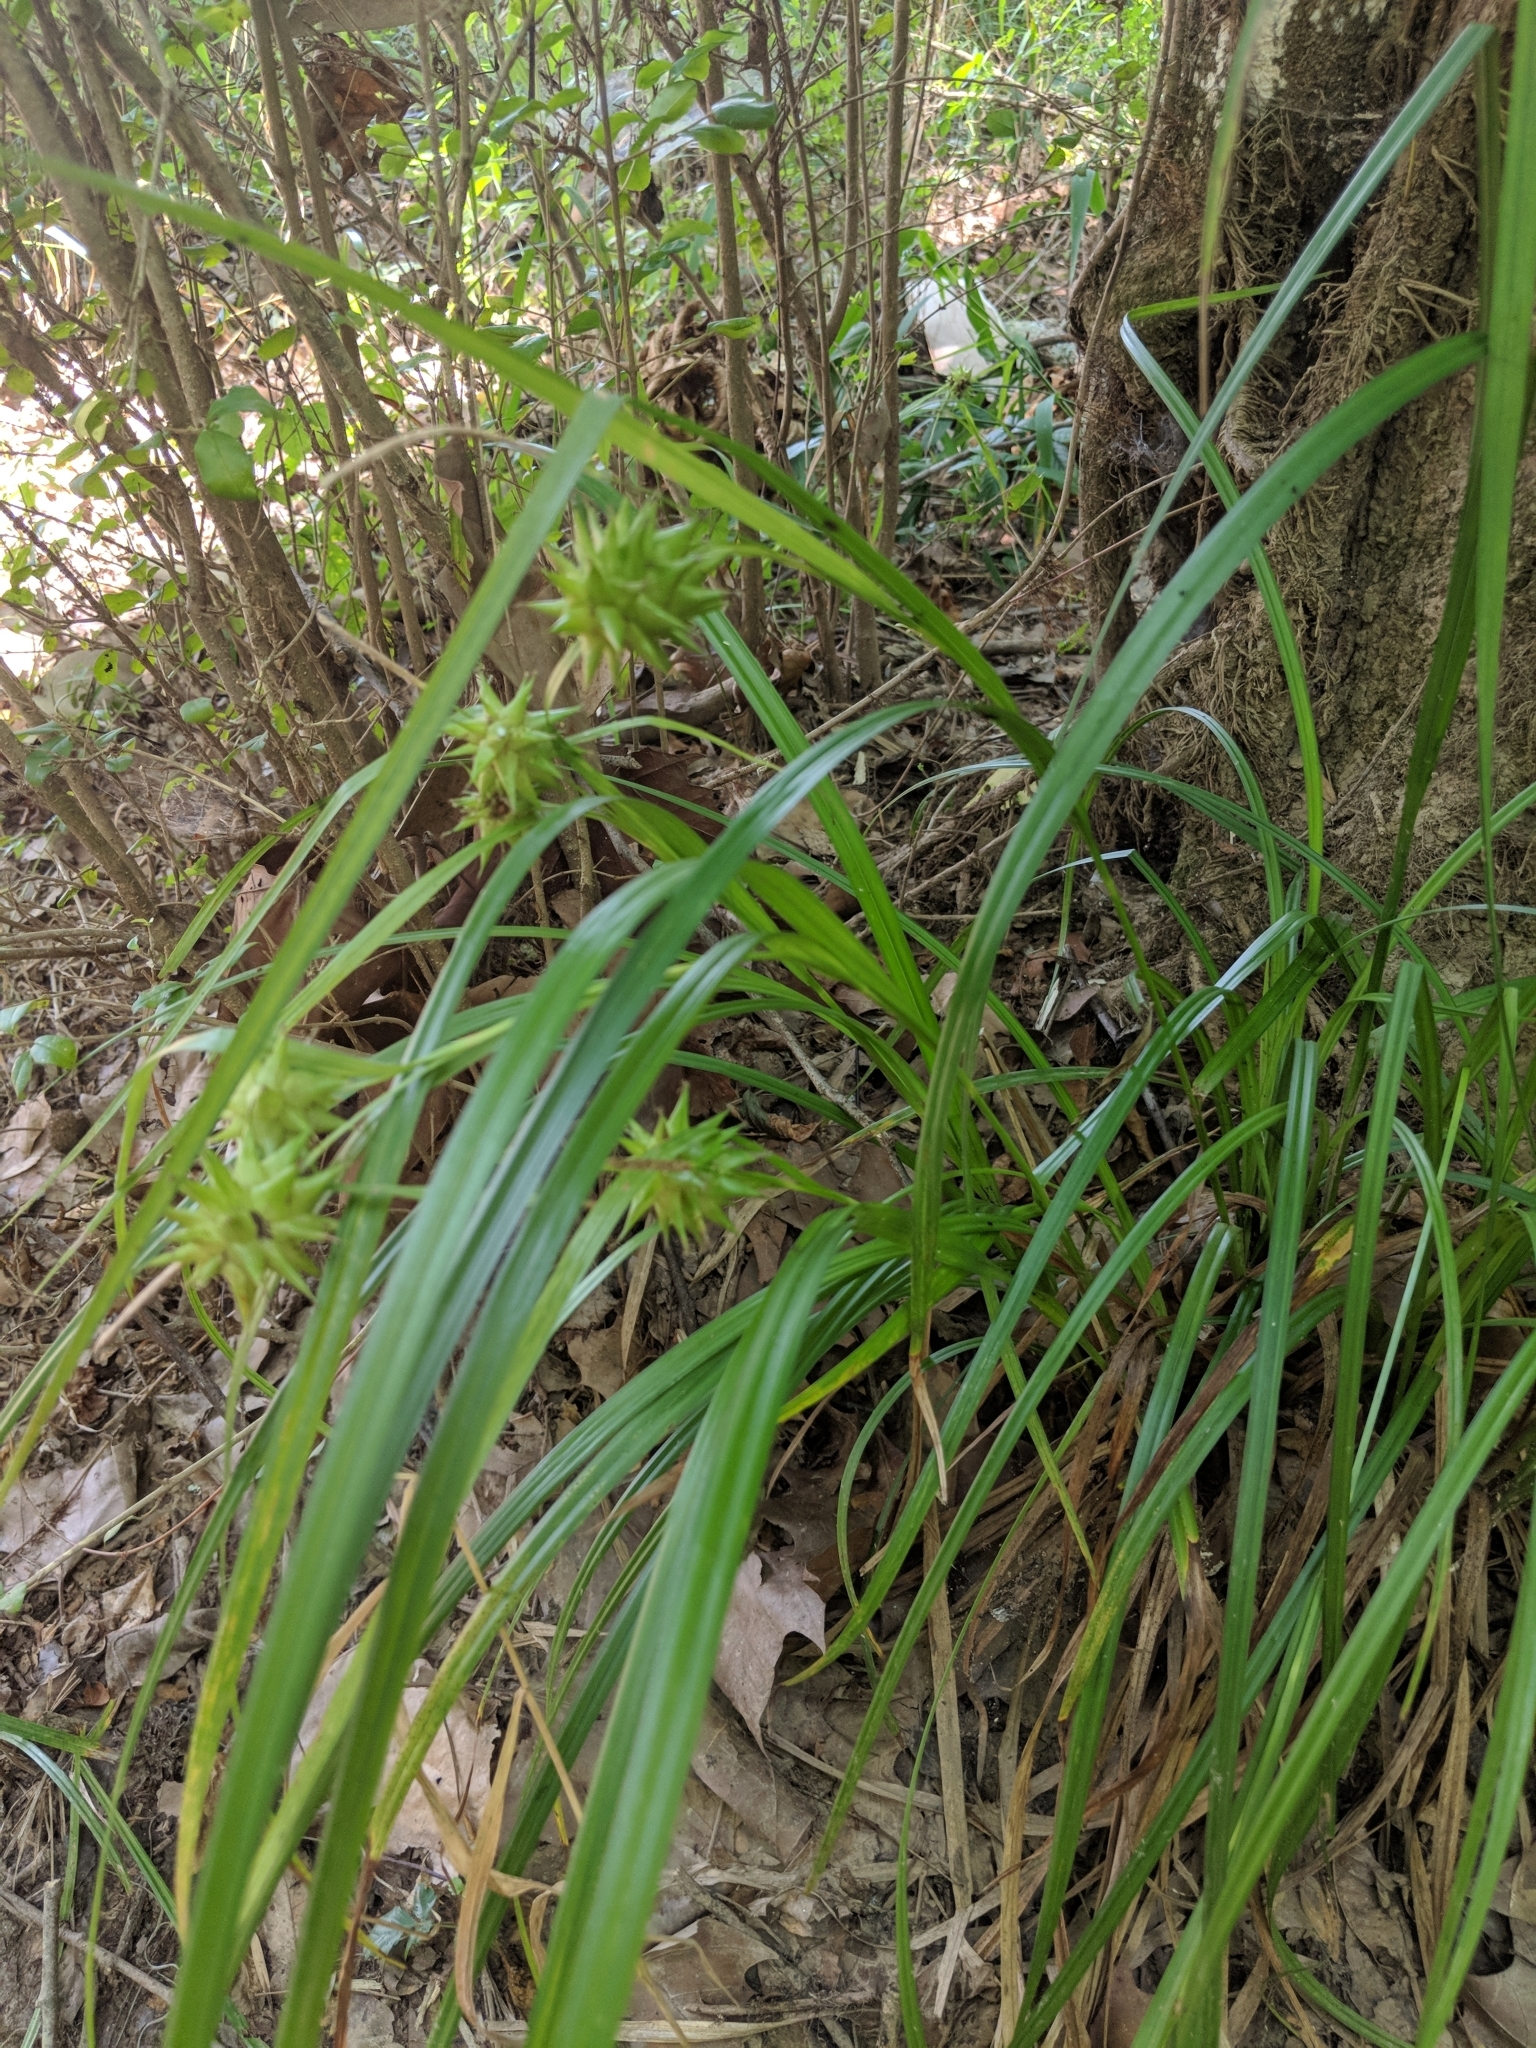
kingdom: Plantae
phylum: Tracheophyta
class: Liliopsida
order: Poales
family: Cyperaceae
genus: Carex
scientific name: Carex grayi
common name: Asa gray's sedge
